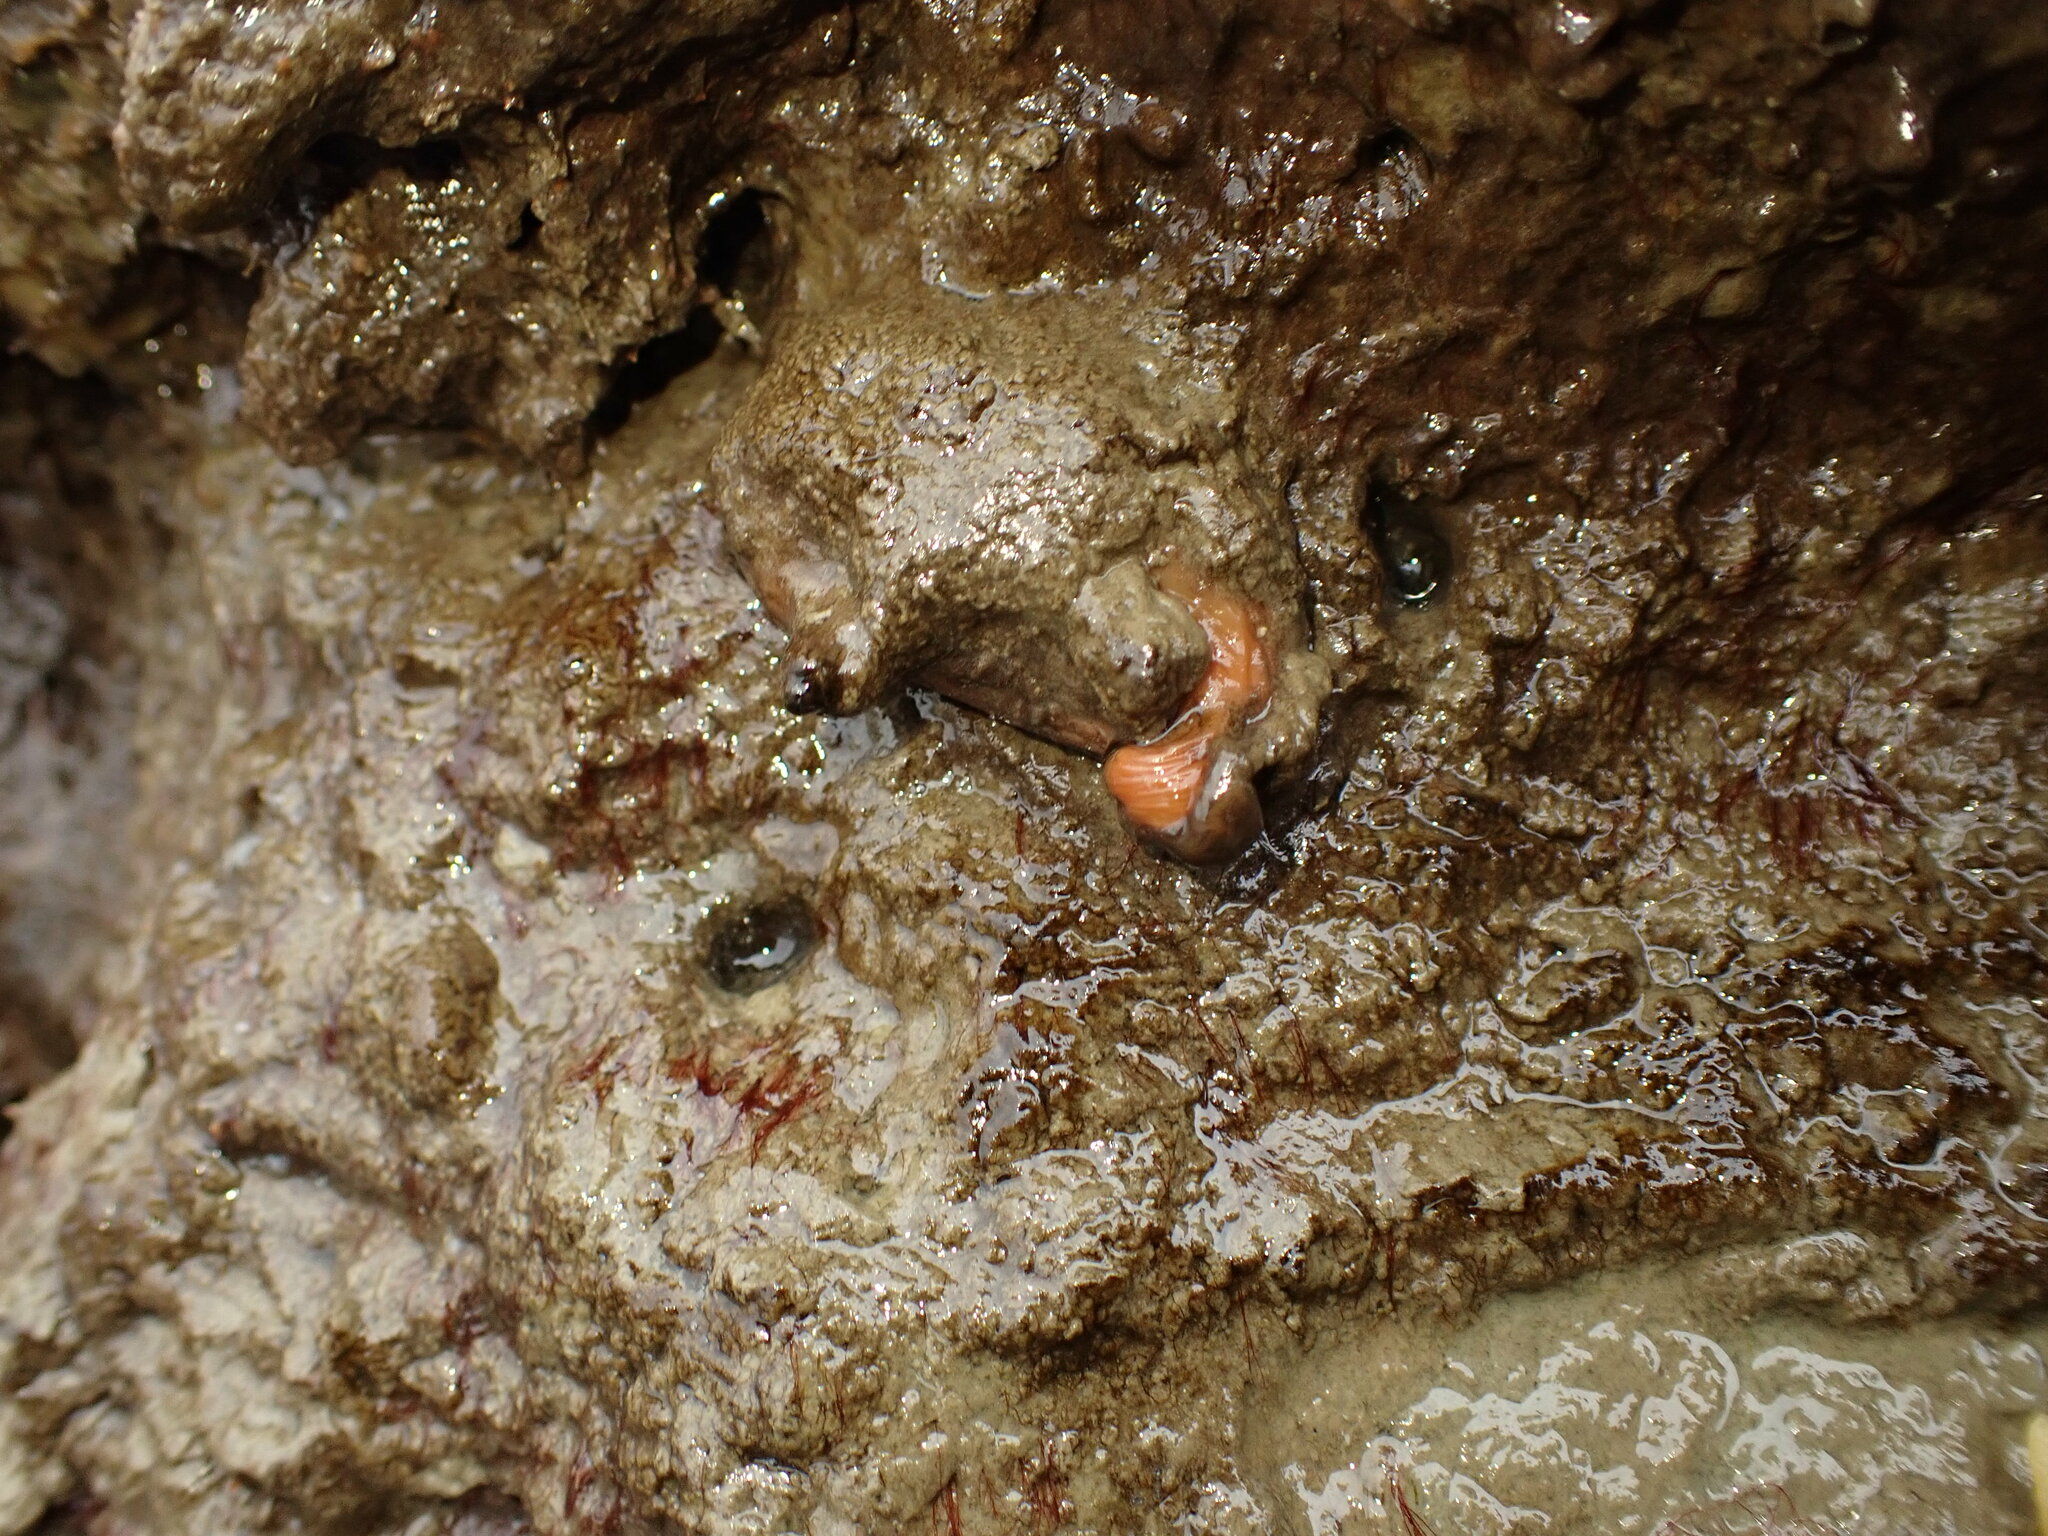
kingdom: Animalia
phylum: Chordata
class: Ascidiacea
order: Stolidobranchia
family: Styelidae
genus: Cnemidocarpa
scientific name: Cnemidocarpa bicornuta
